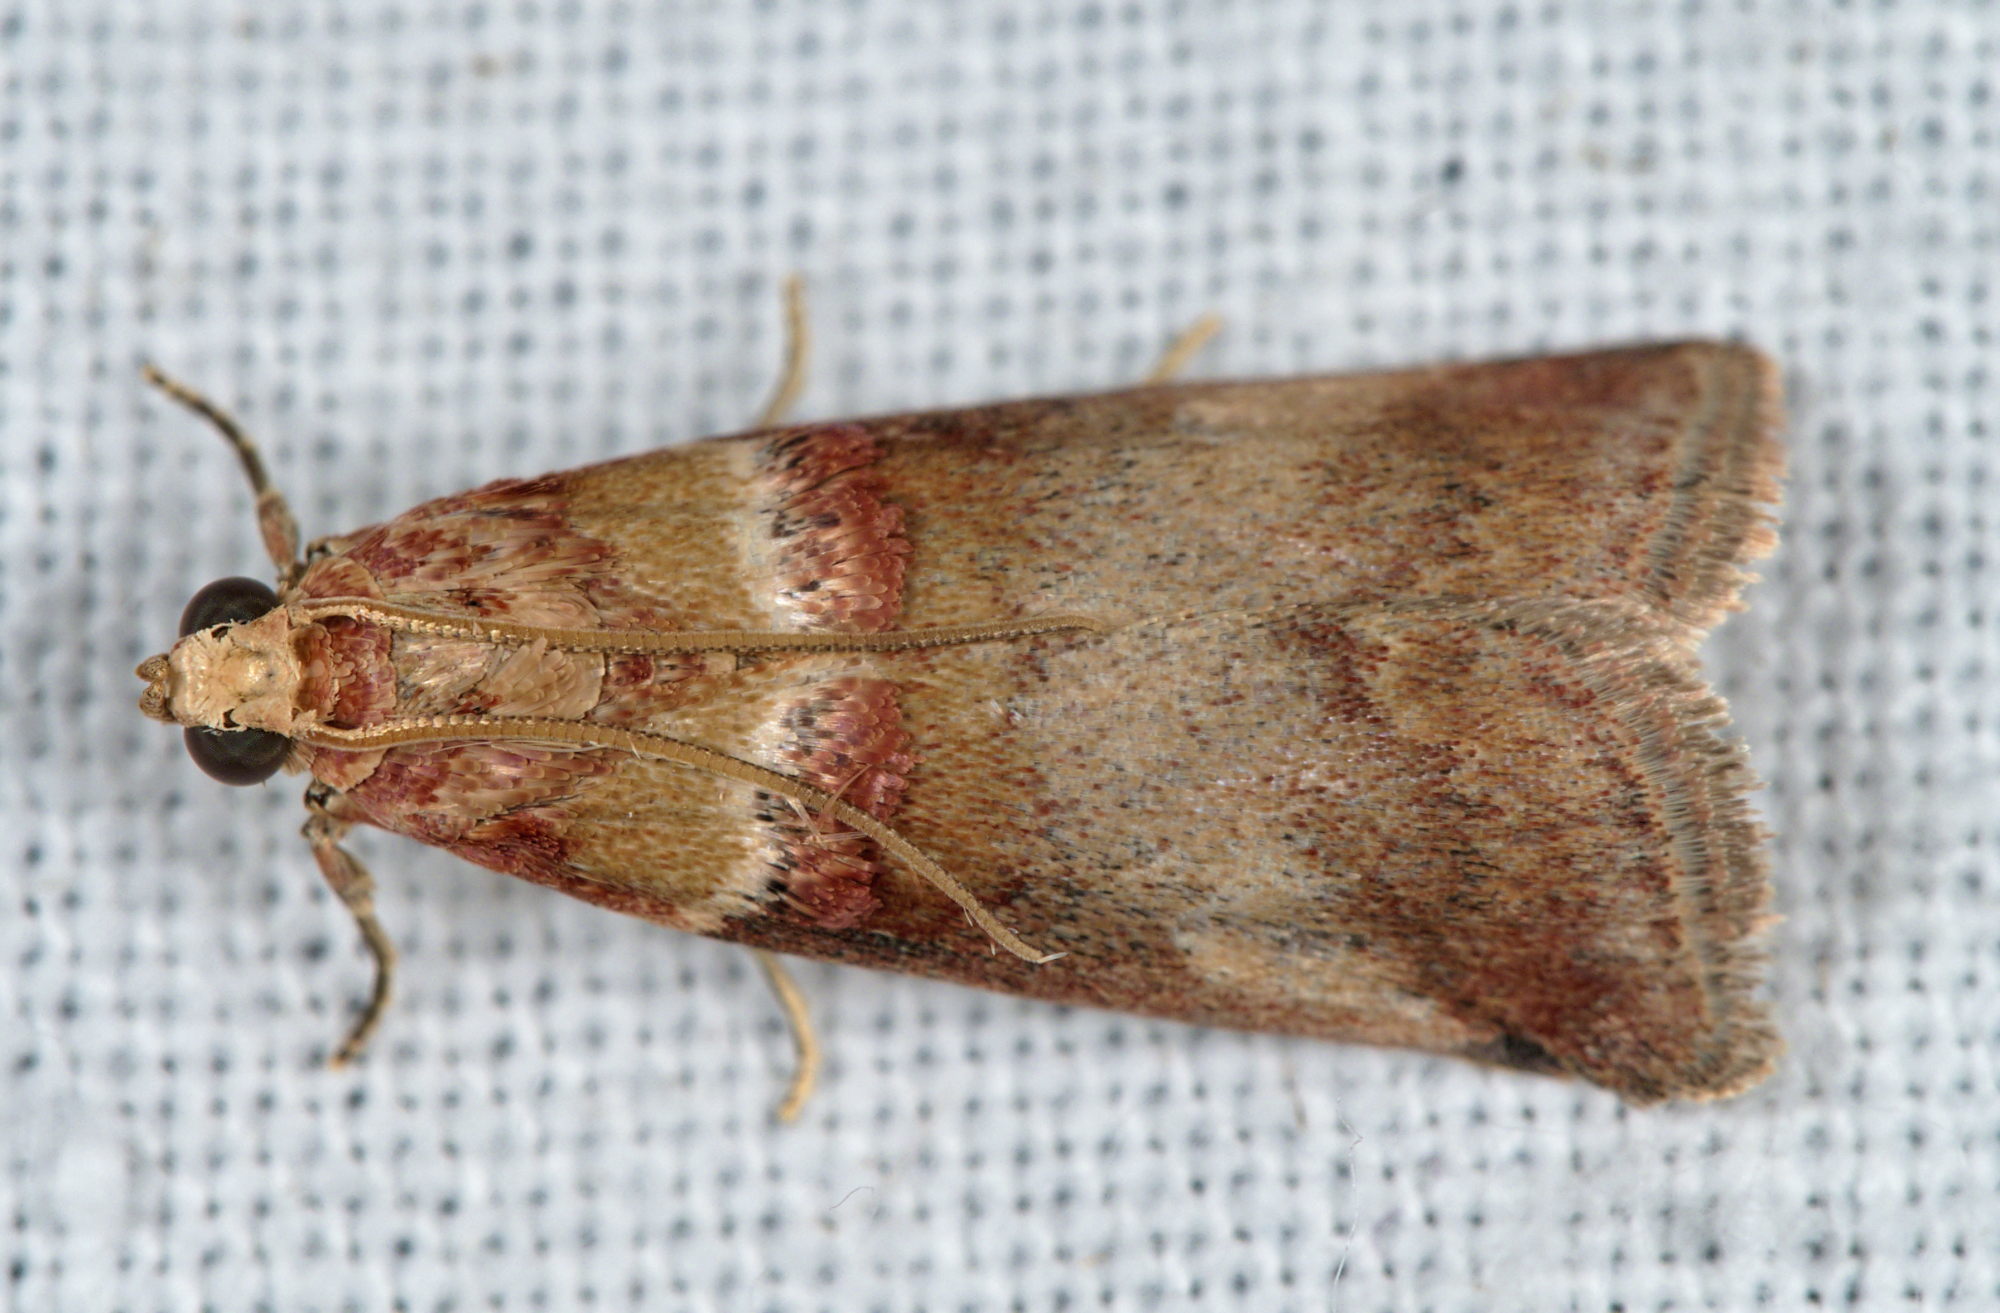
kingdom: Animalia
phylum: Arthropoda
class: Insecta
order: Lepidoptera
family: Pyralidae
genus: Acrobasis
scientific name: Acrobasis tumidana
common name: Scarce oak knot-horn
